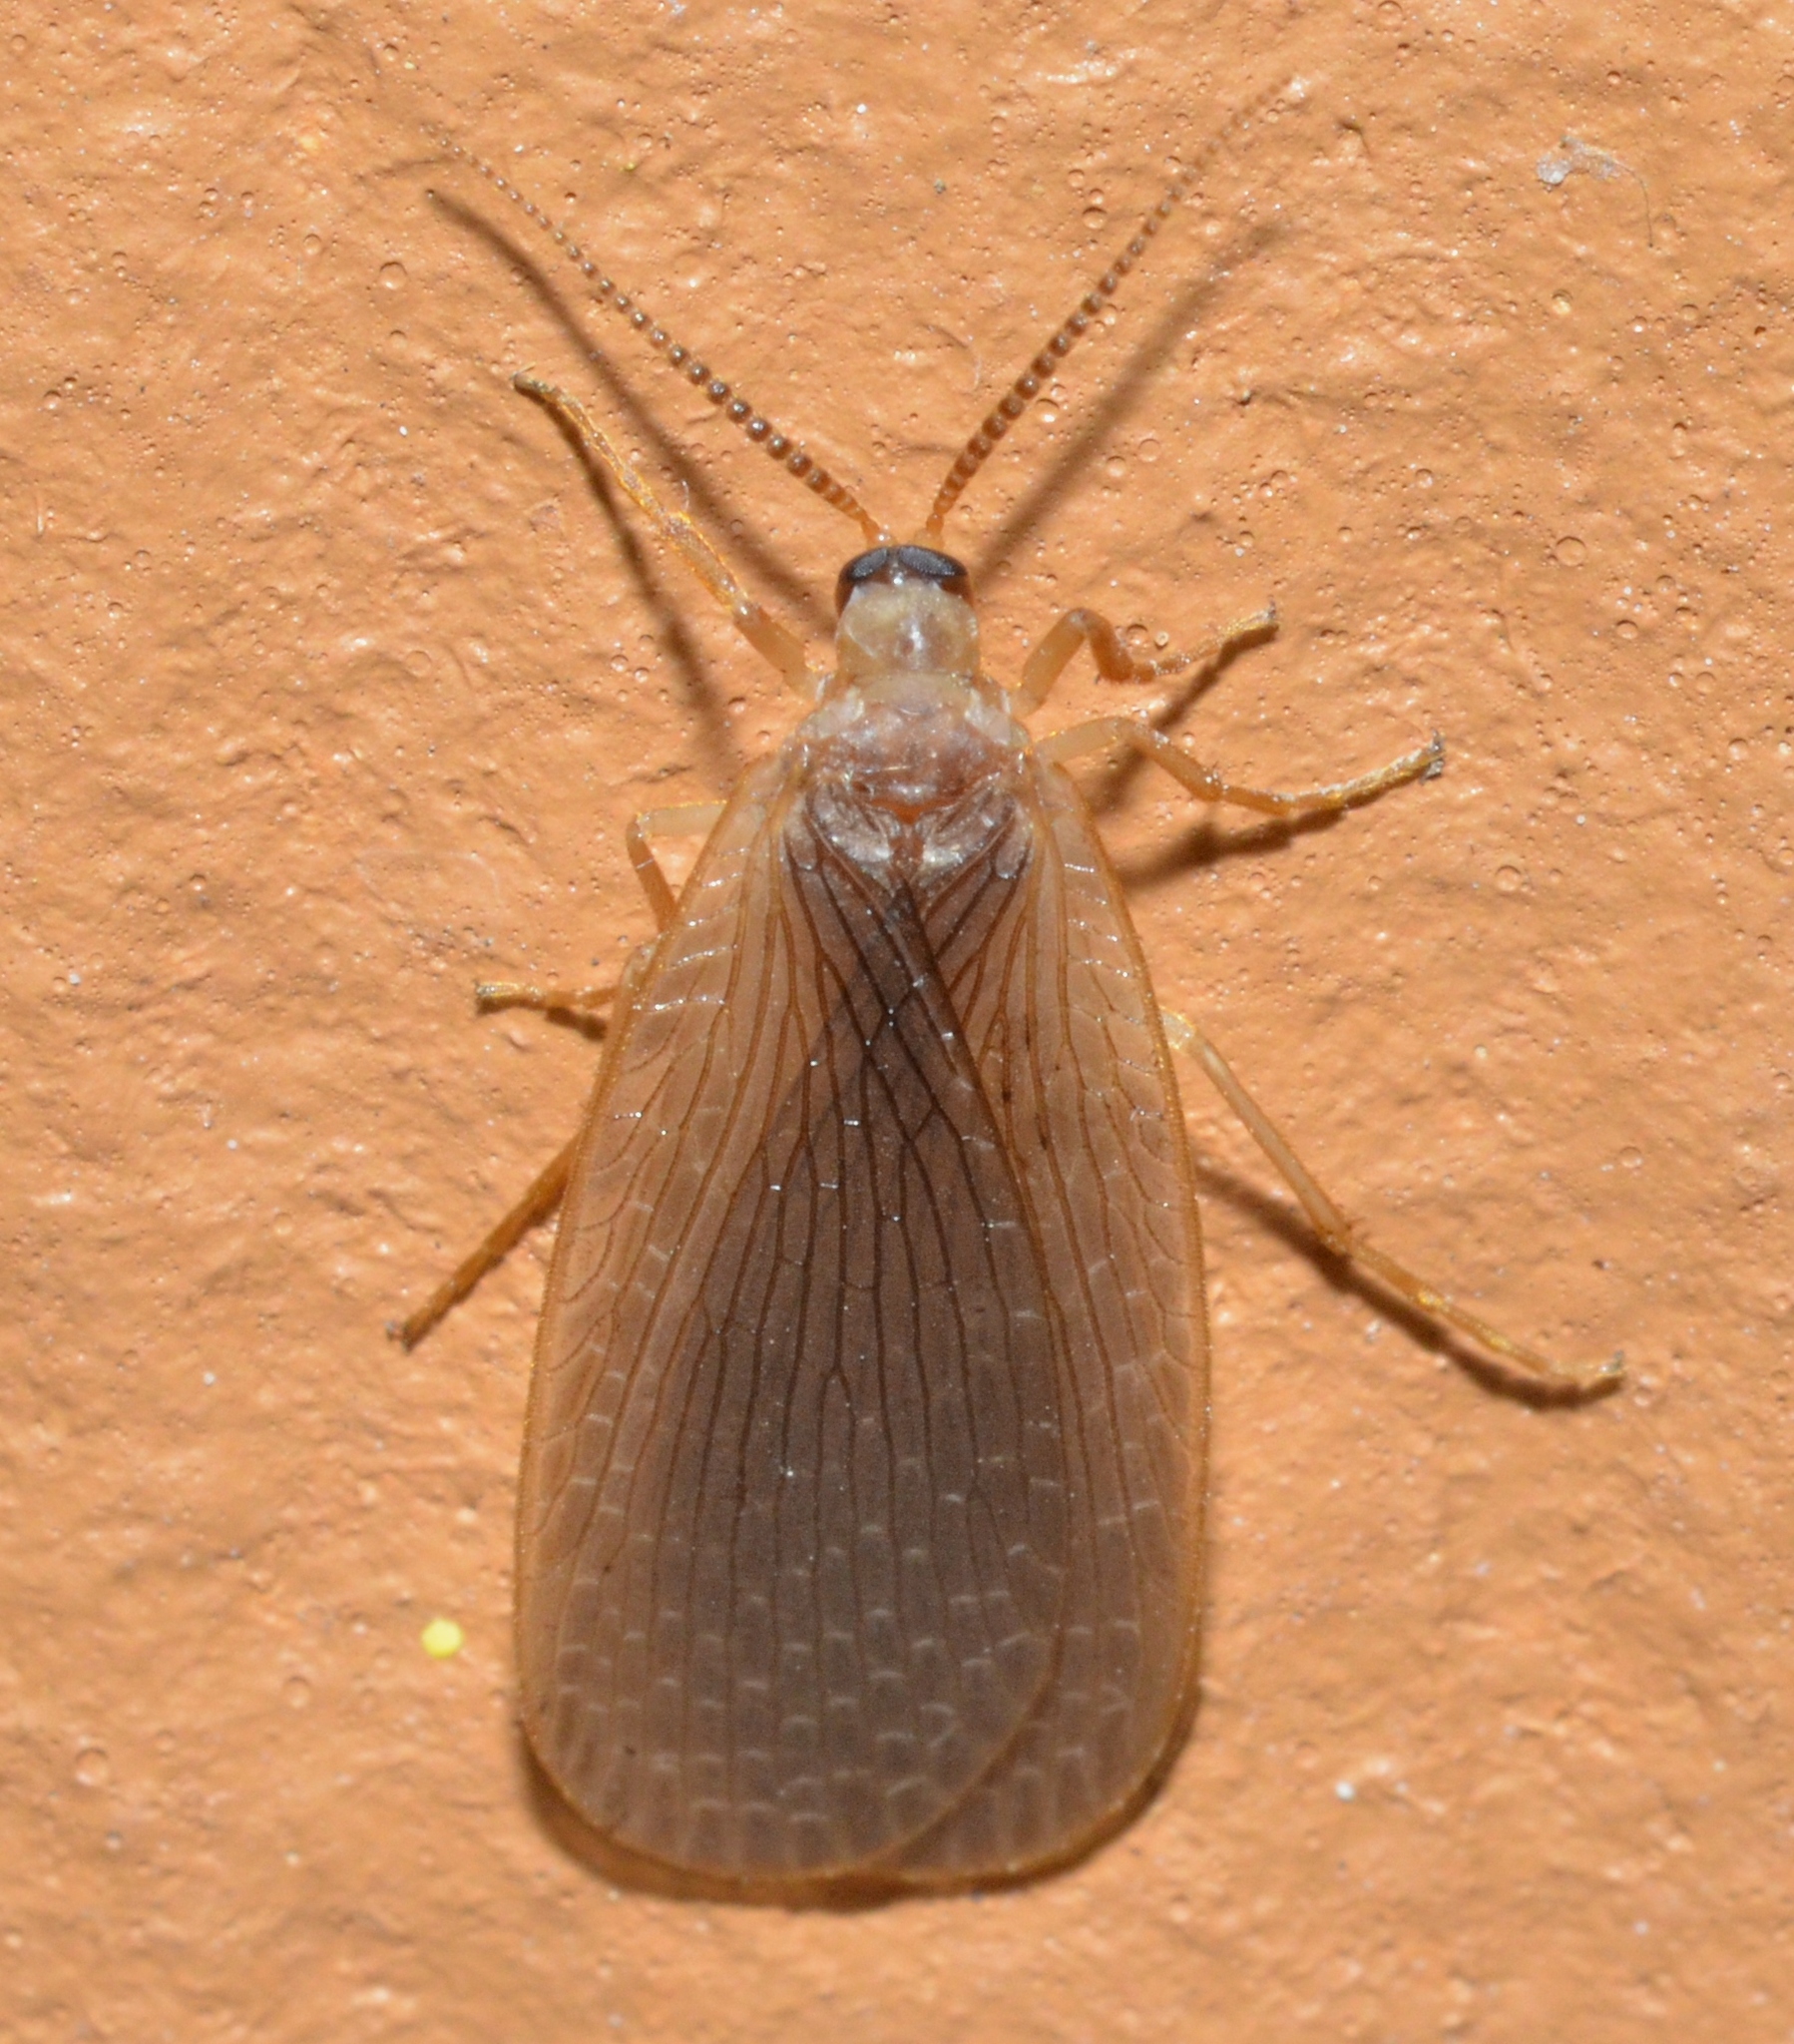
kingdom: Animalia
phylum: Arthropoda
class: Insecta
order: Mecoptera
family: Meropeidae
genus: Merope
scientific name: Merope tuber
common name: Forcepfly
